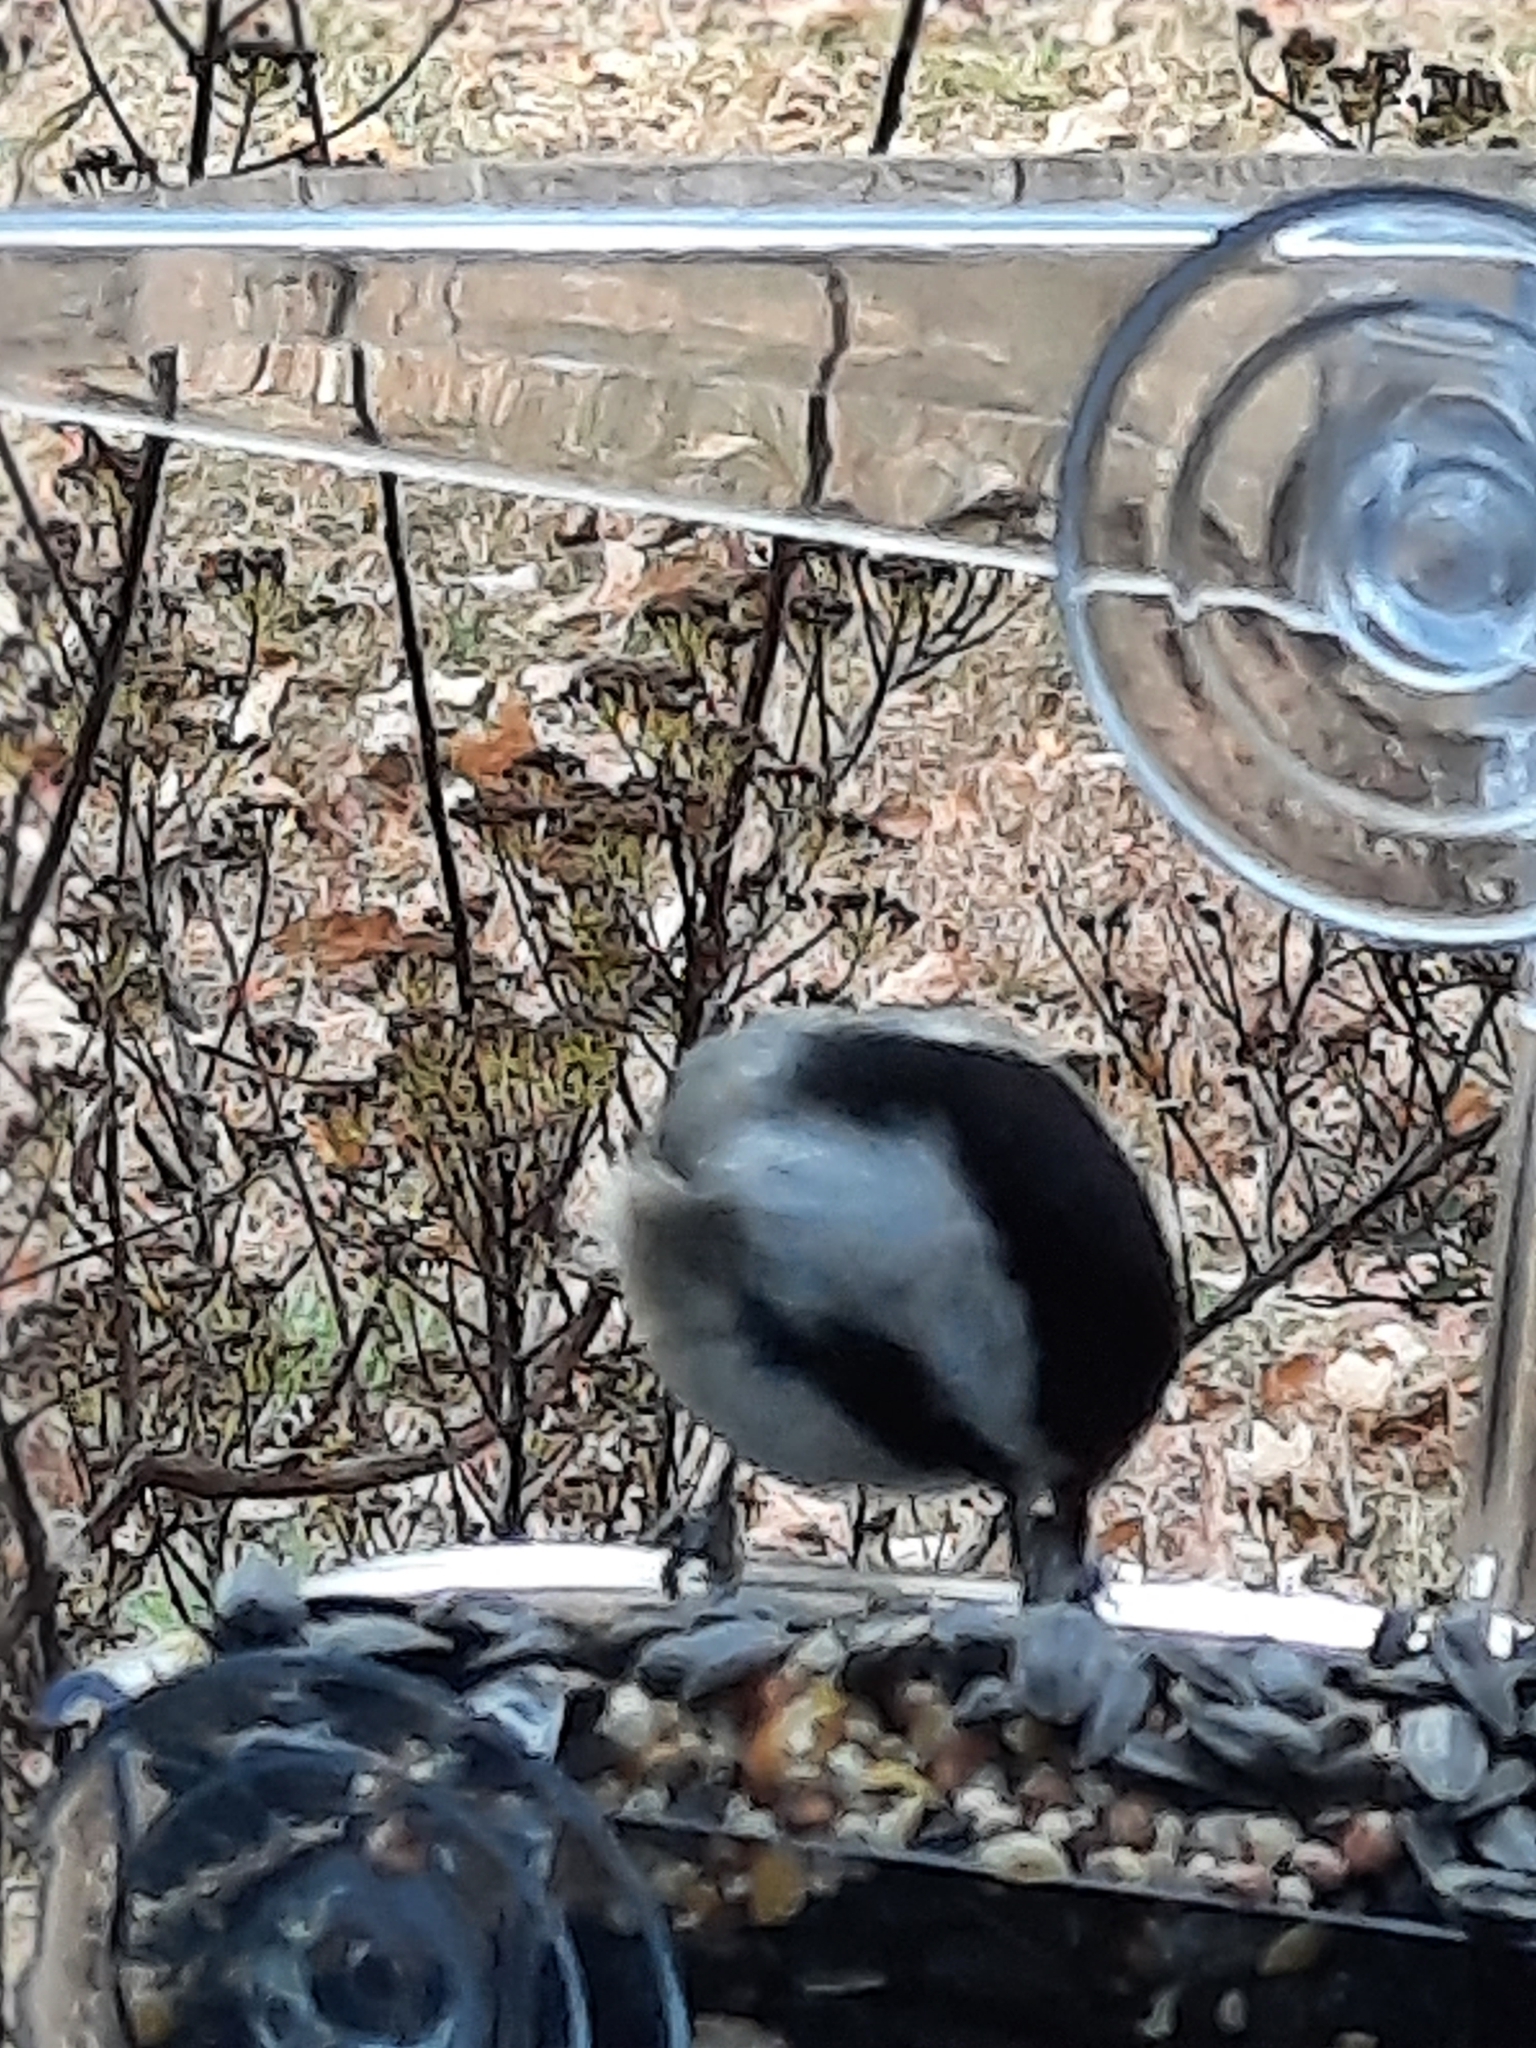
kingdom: Animalia
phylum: Chordata
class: Aves
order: Passeriformes
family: Paridae
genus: Poecile
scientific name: Poecile atricapillus
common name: Black-capped chickadee
